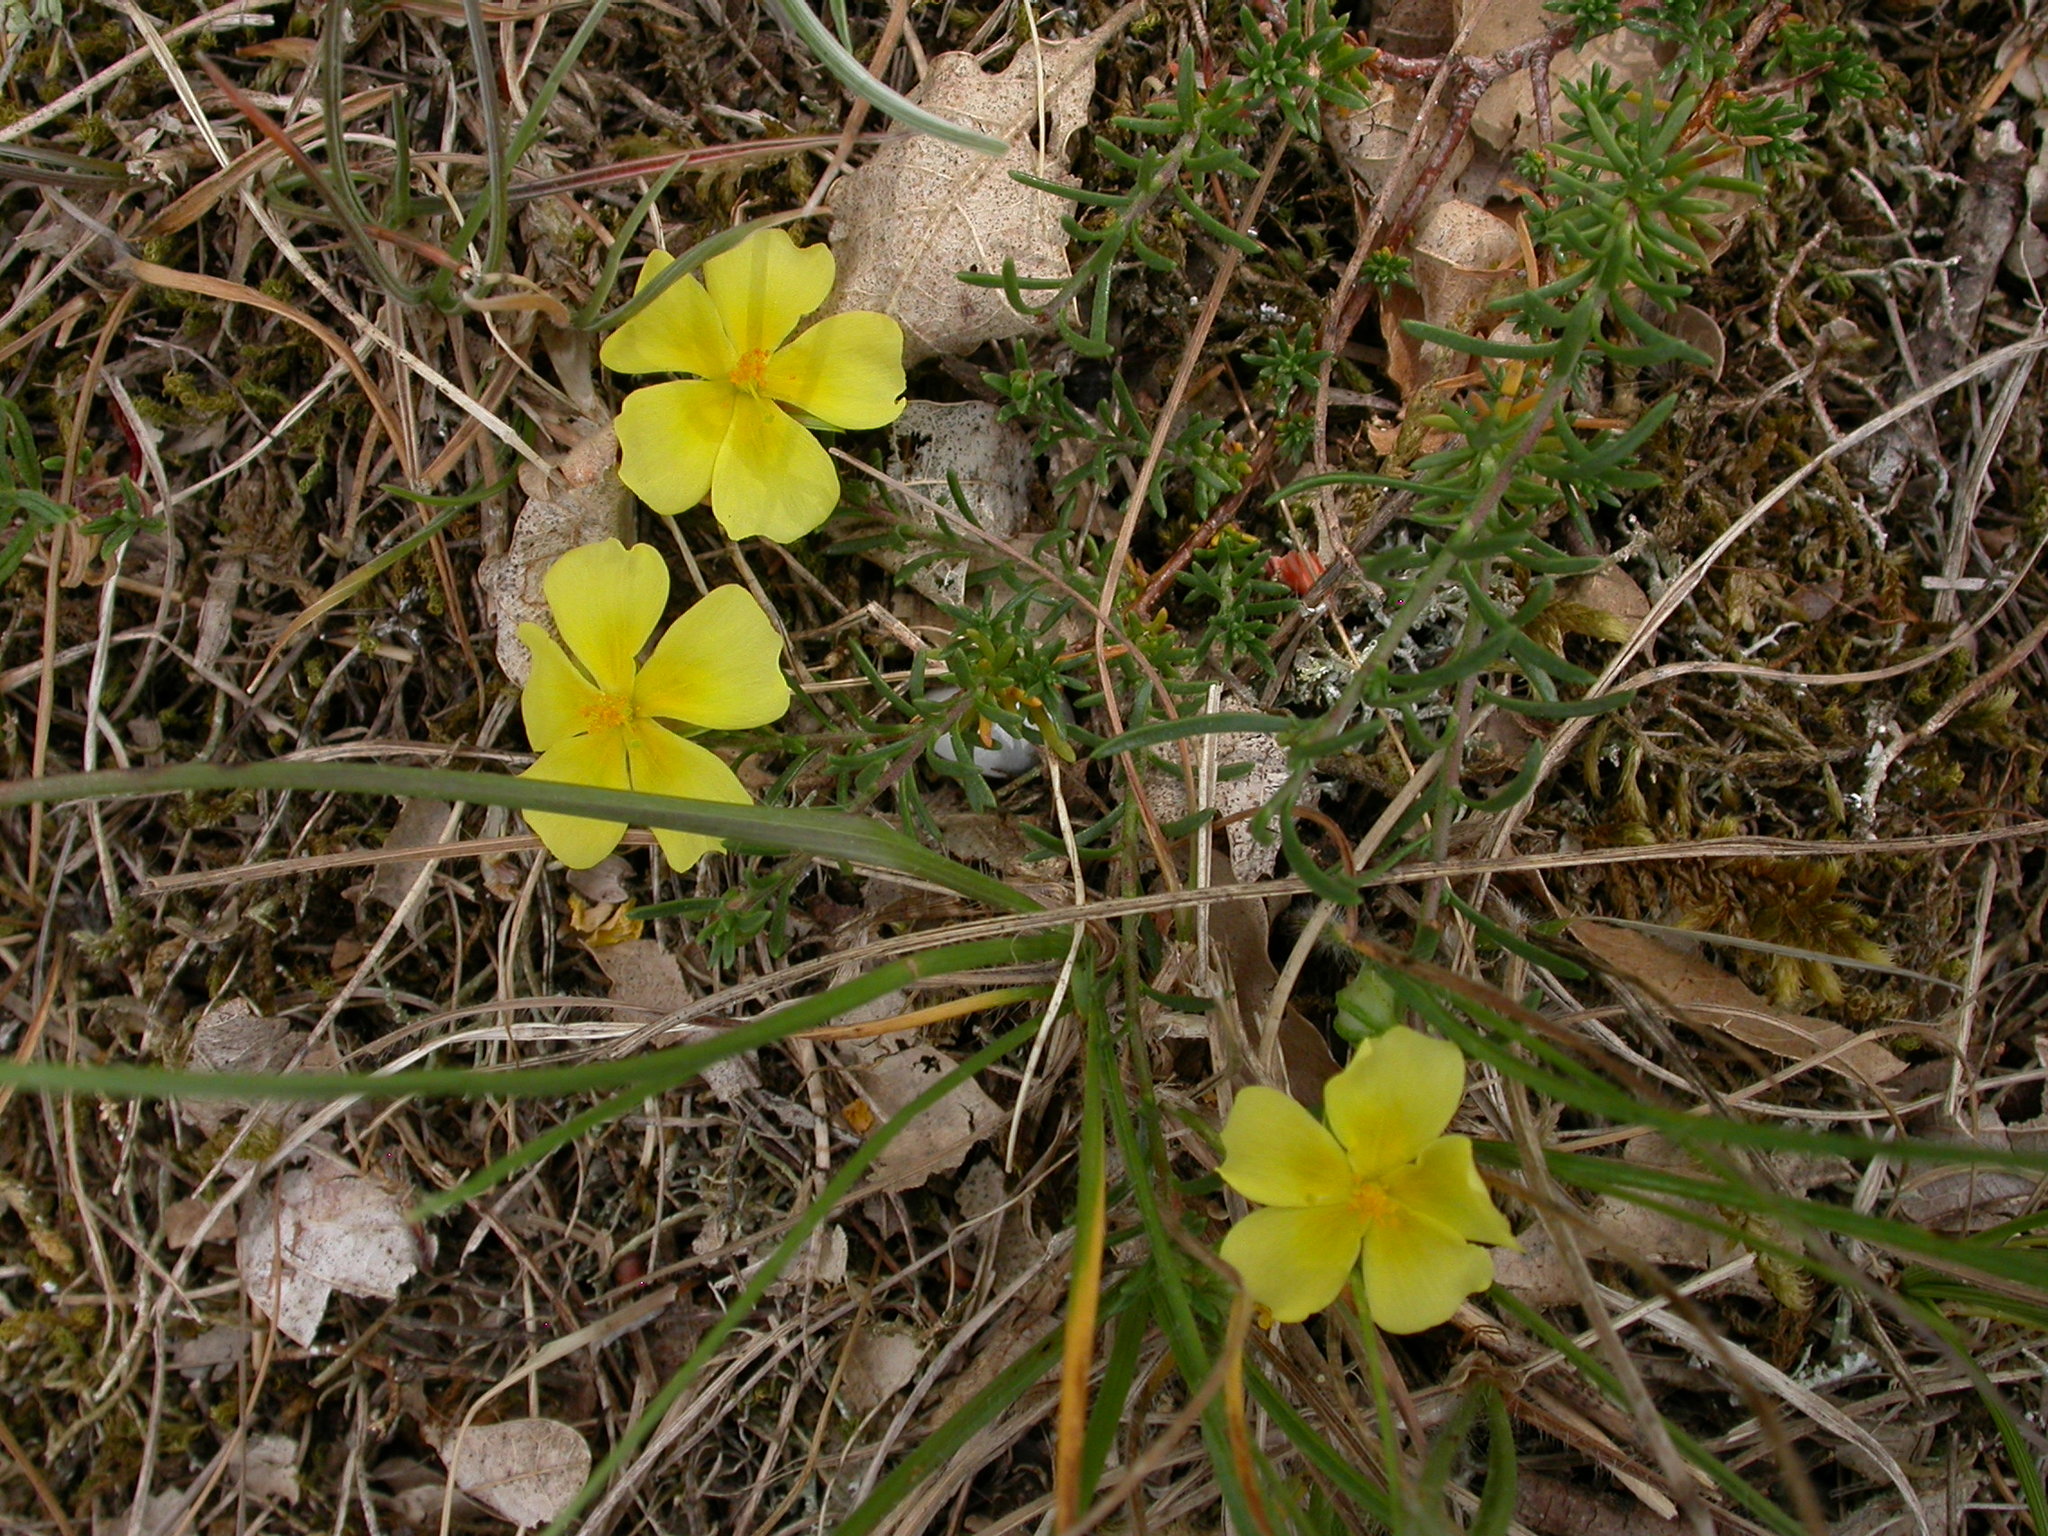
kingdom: Plantae
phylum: Tracheophyta
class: Magnoliopsida
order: Malvales
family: Cistaceae
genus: Fumana
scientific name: Fumana procumbens
